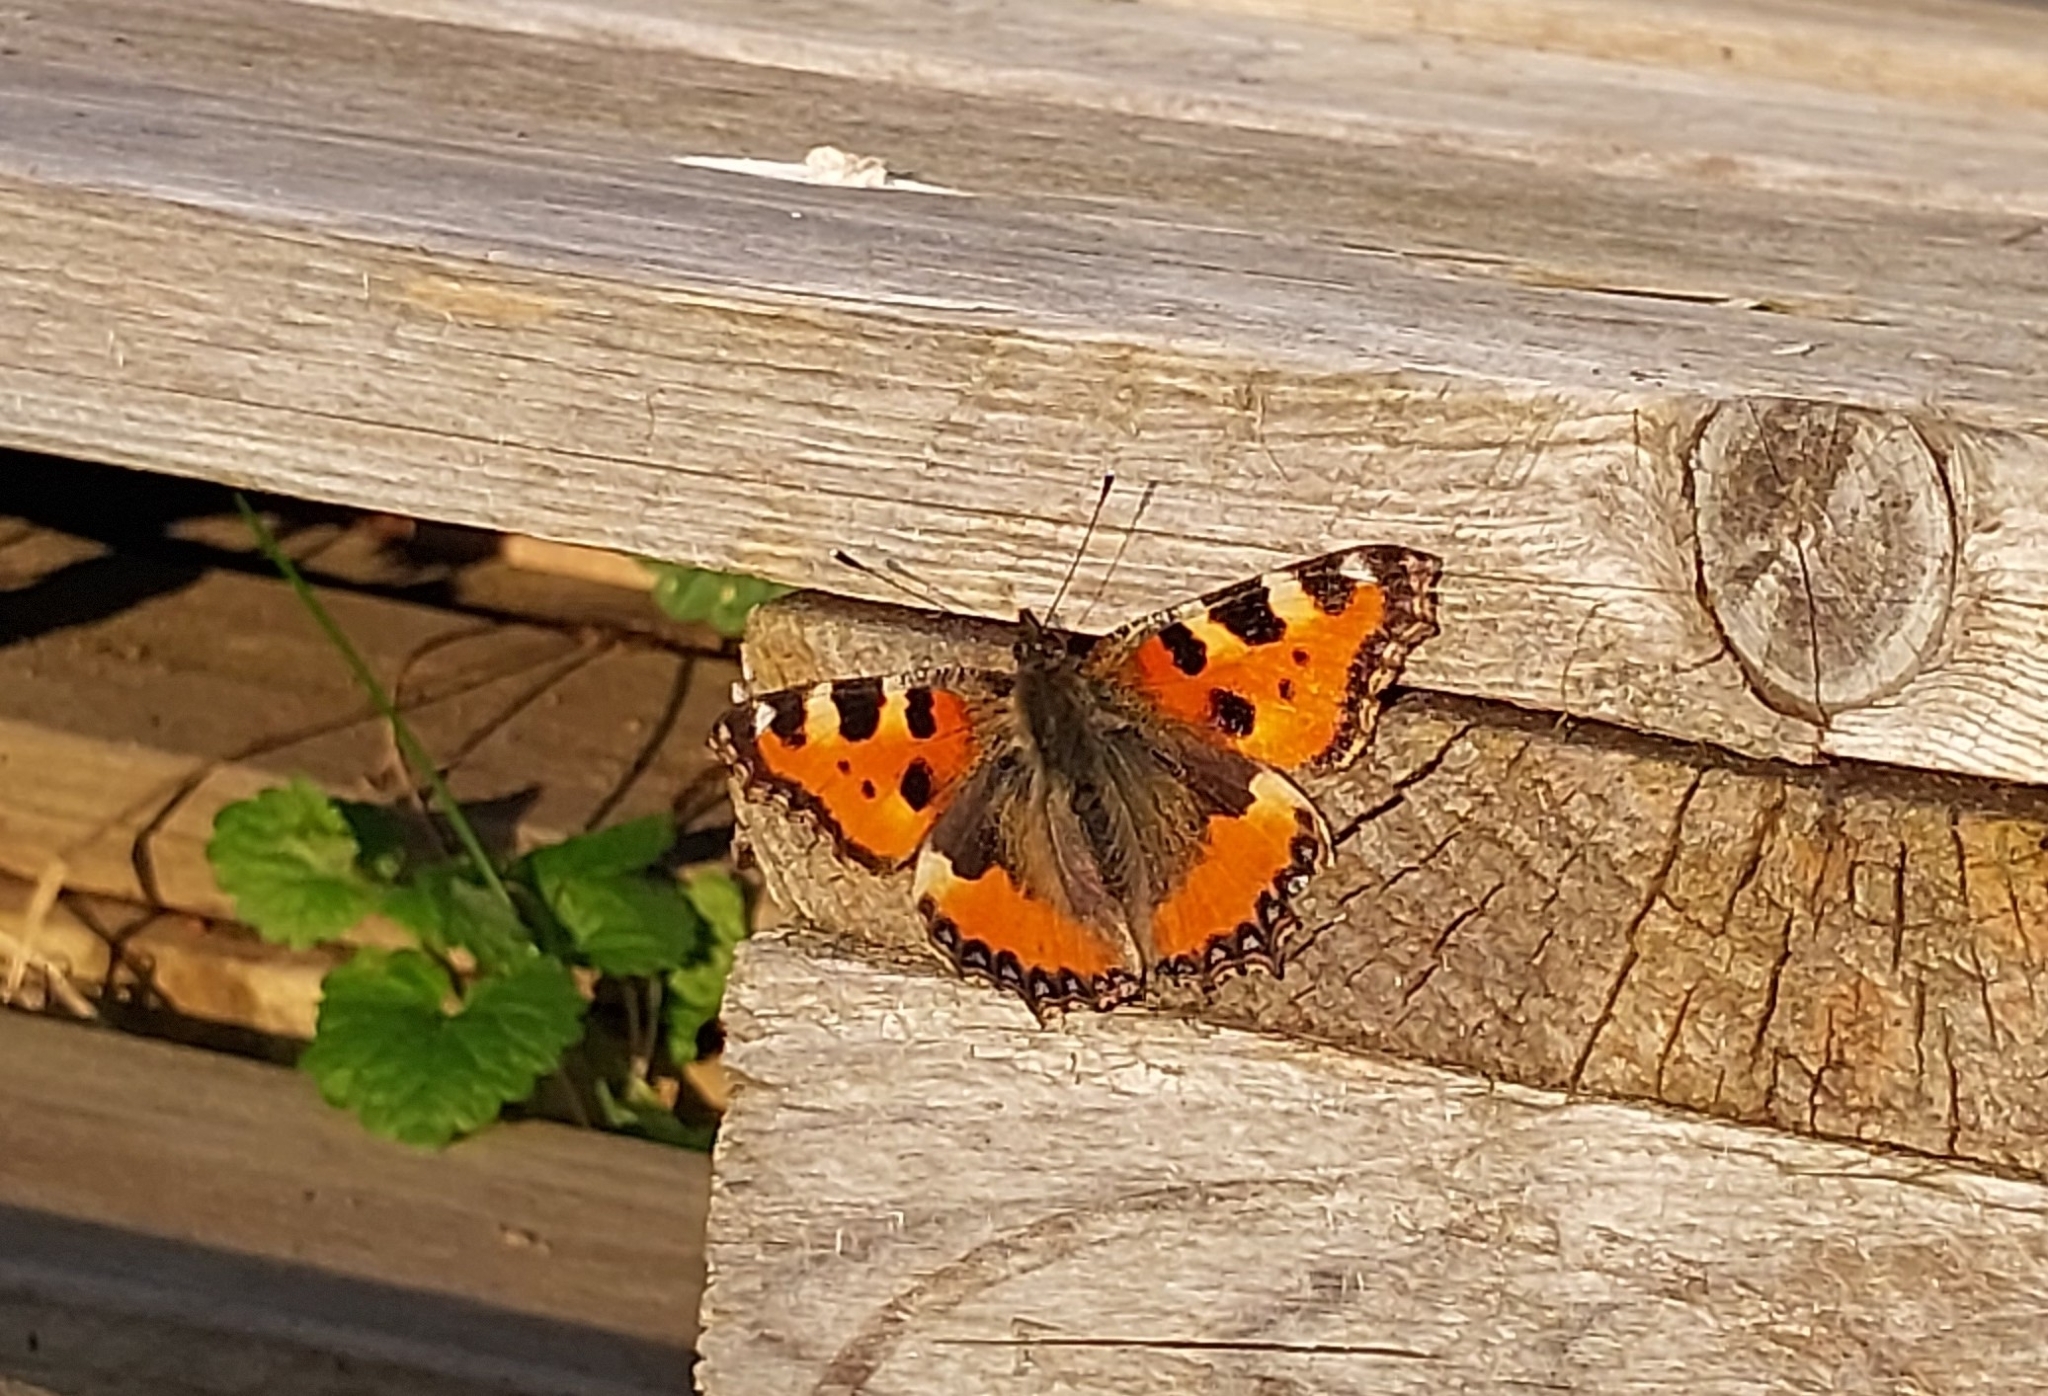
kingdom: Animalia
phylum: Arthropoda
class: Insecta
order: Lepidoptera
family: Nymphalidae
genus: Aglais
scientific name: Aglais urticae
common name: Small tortoiseshell
